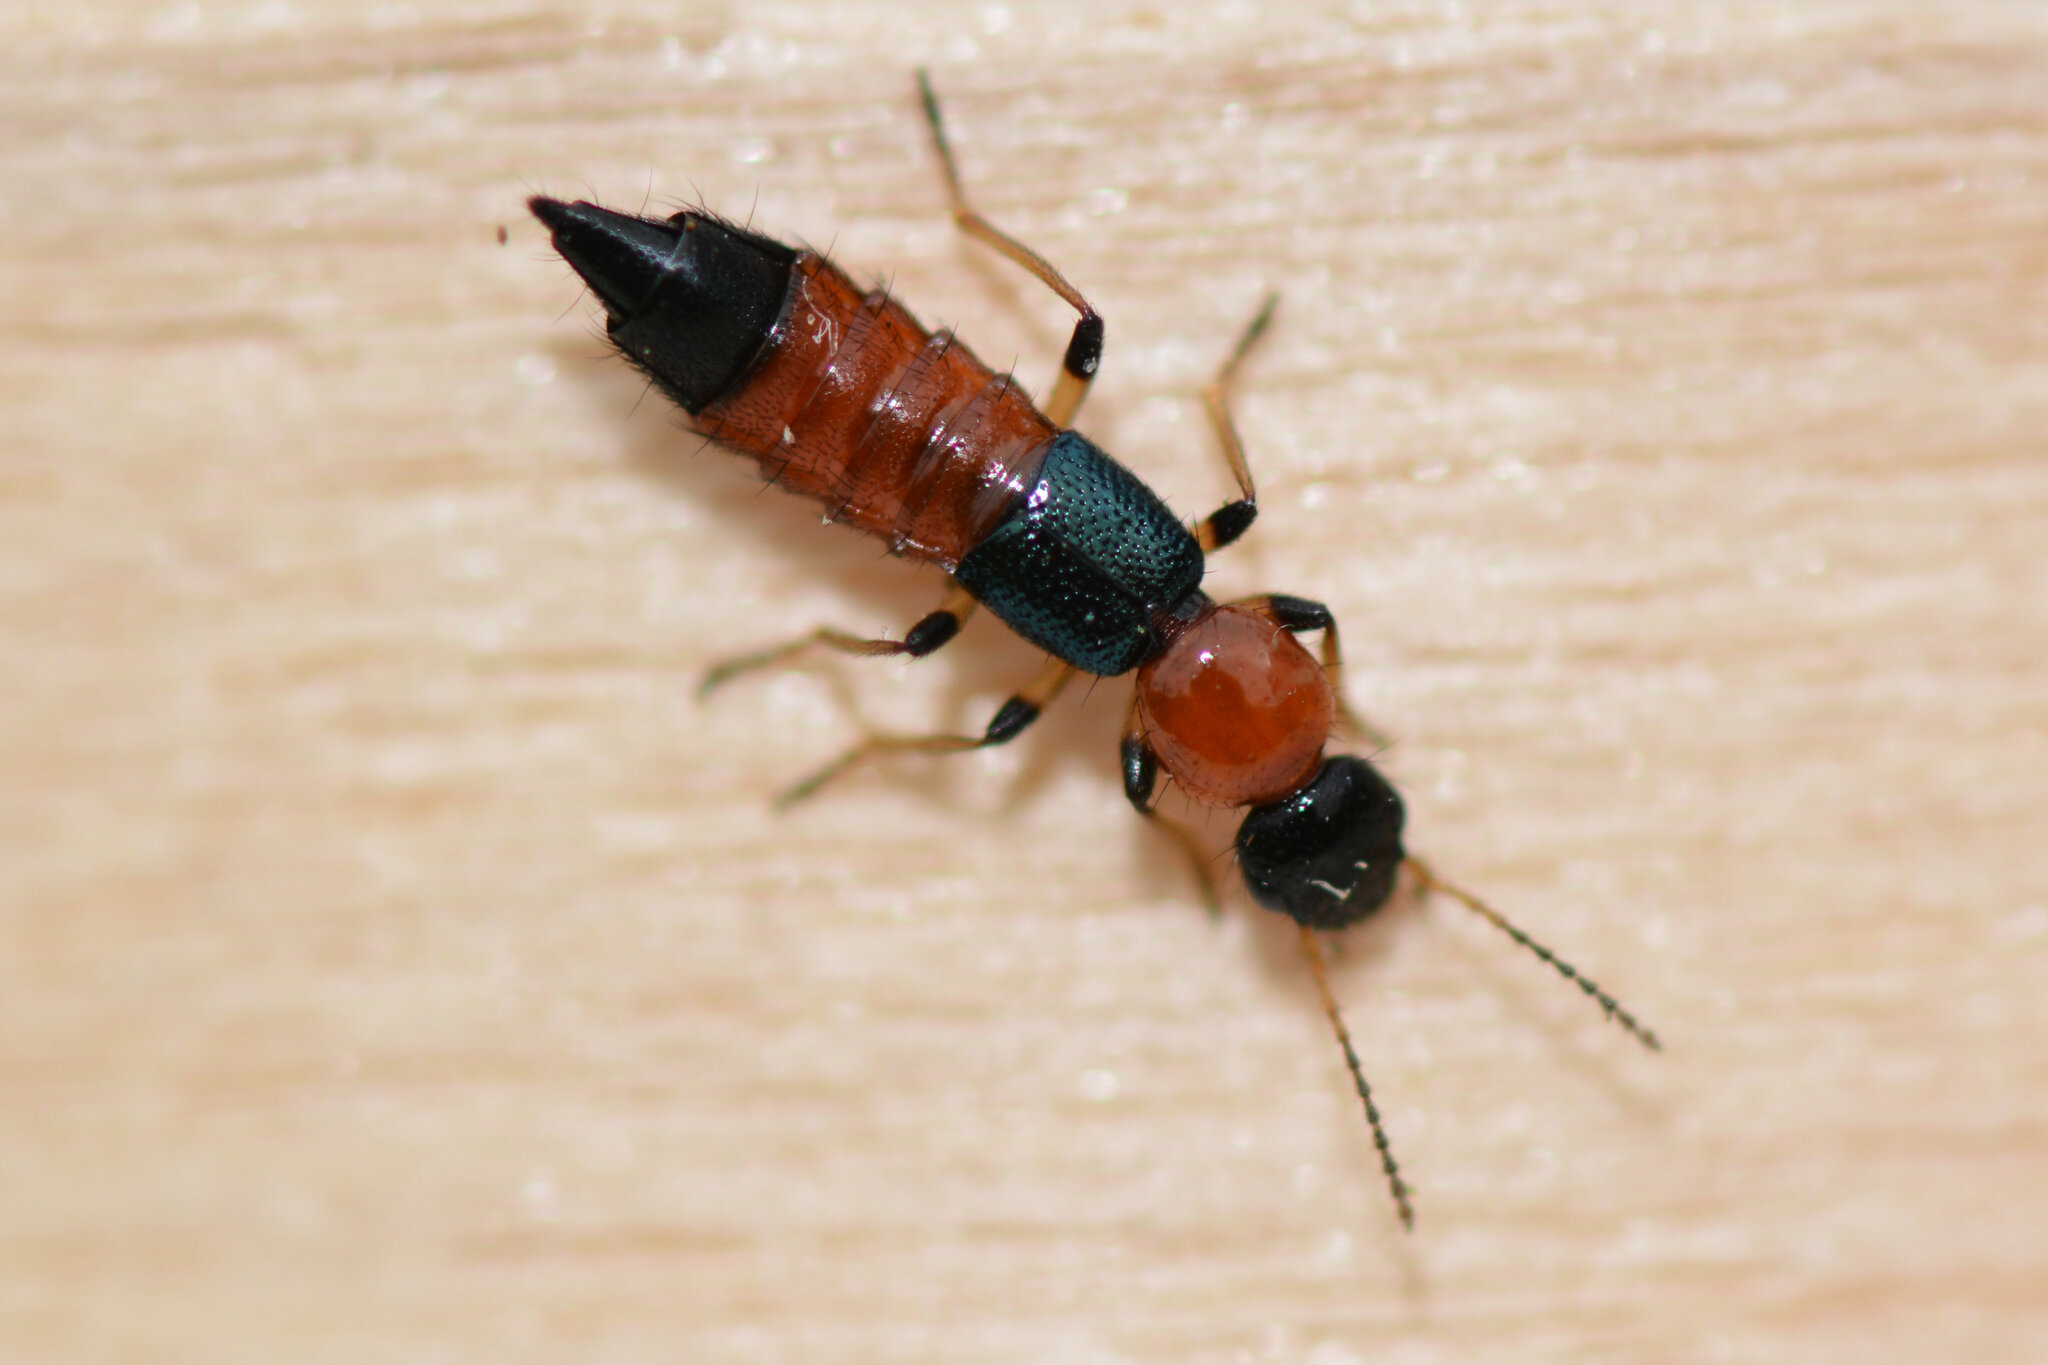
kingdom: Animalia
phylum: Arthropoda
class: Insecta
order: Coleoptera
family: Staphylinidae
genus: Paederus
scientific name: Paederus littoralis
